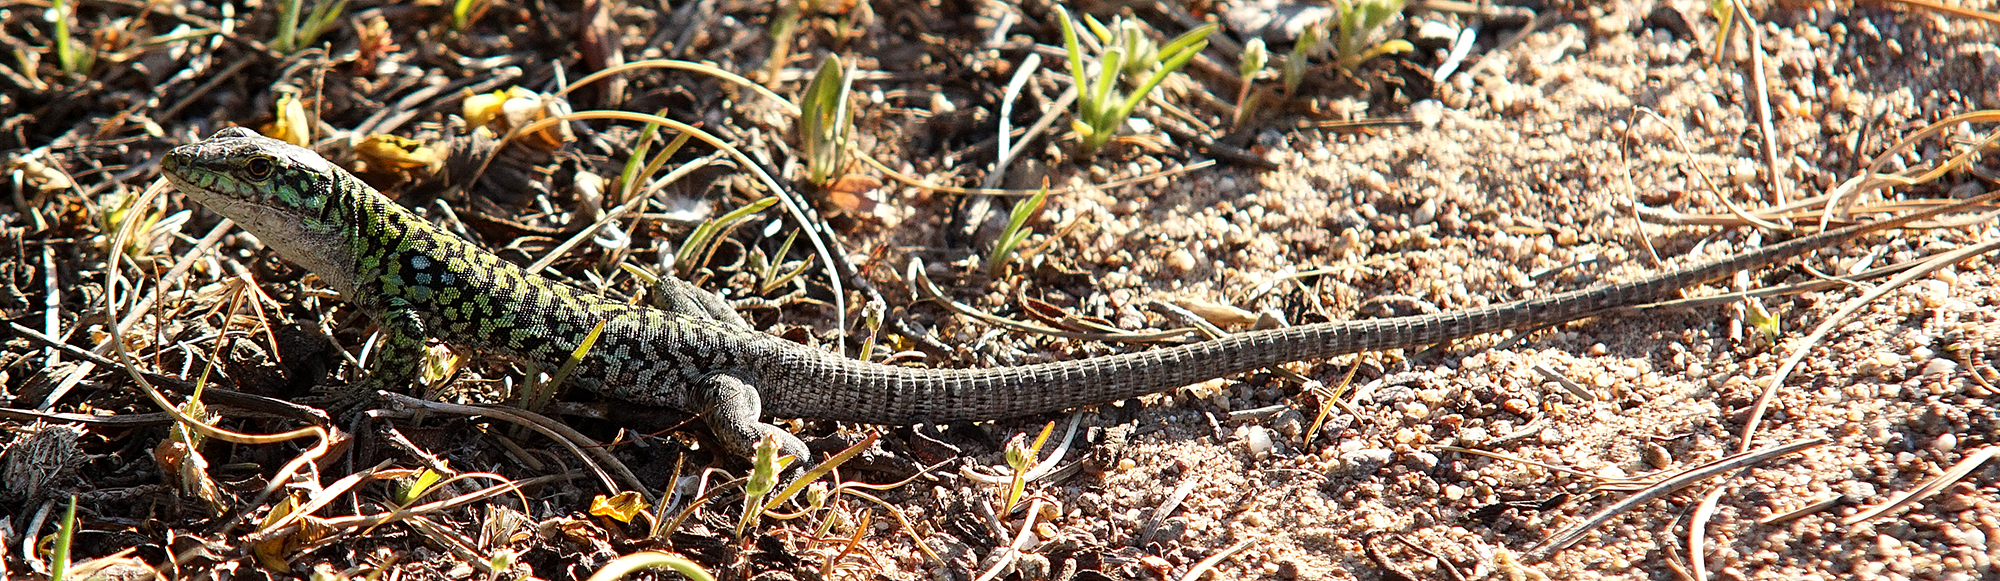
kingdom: Animalia
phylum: Chordata
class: Squamata
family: Lacertidae
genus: Podarcis
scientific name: Podarcis siculus
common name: Italian wall lizard
